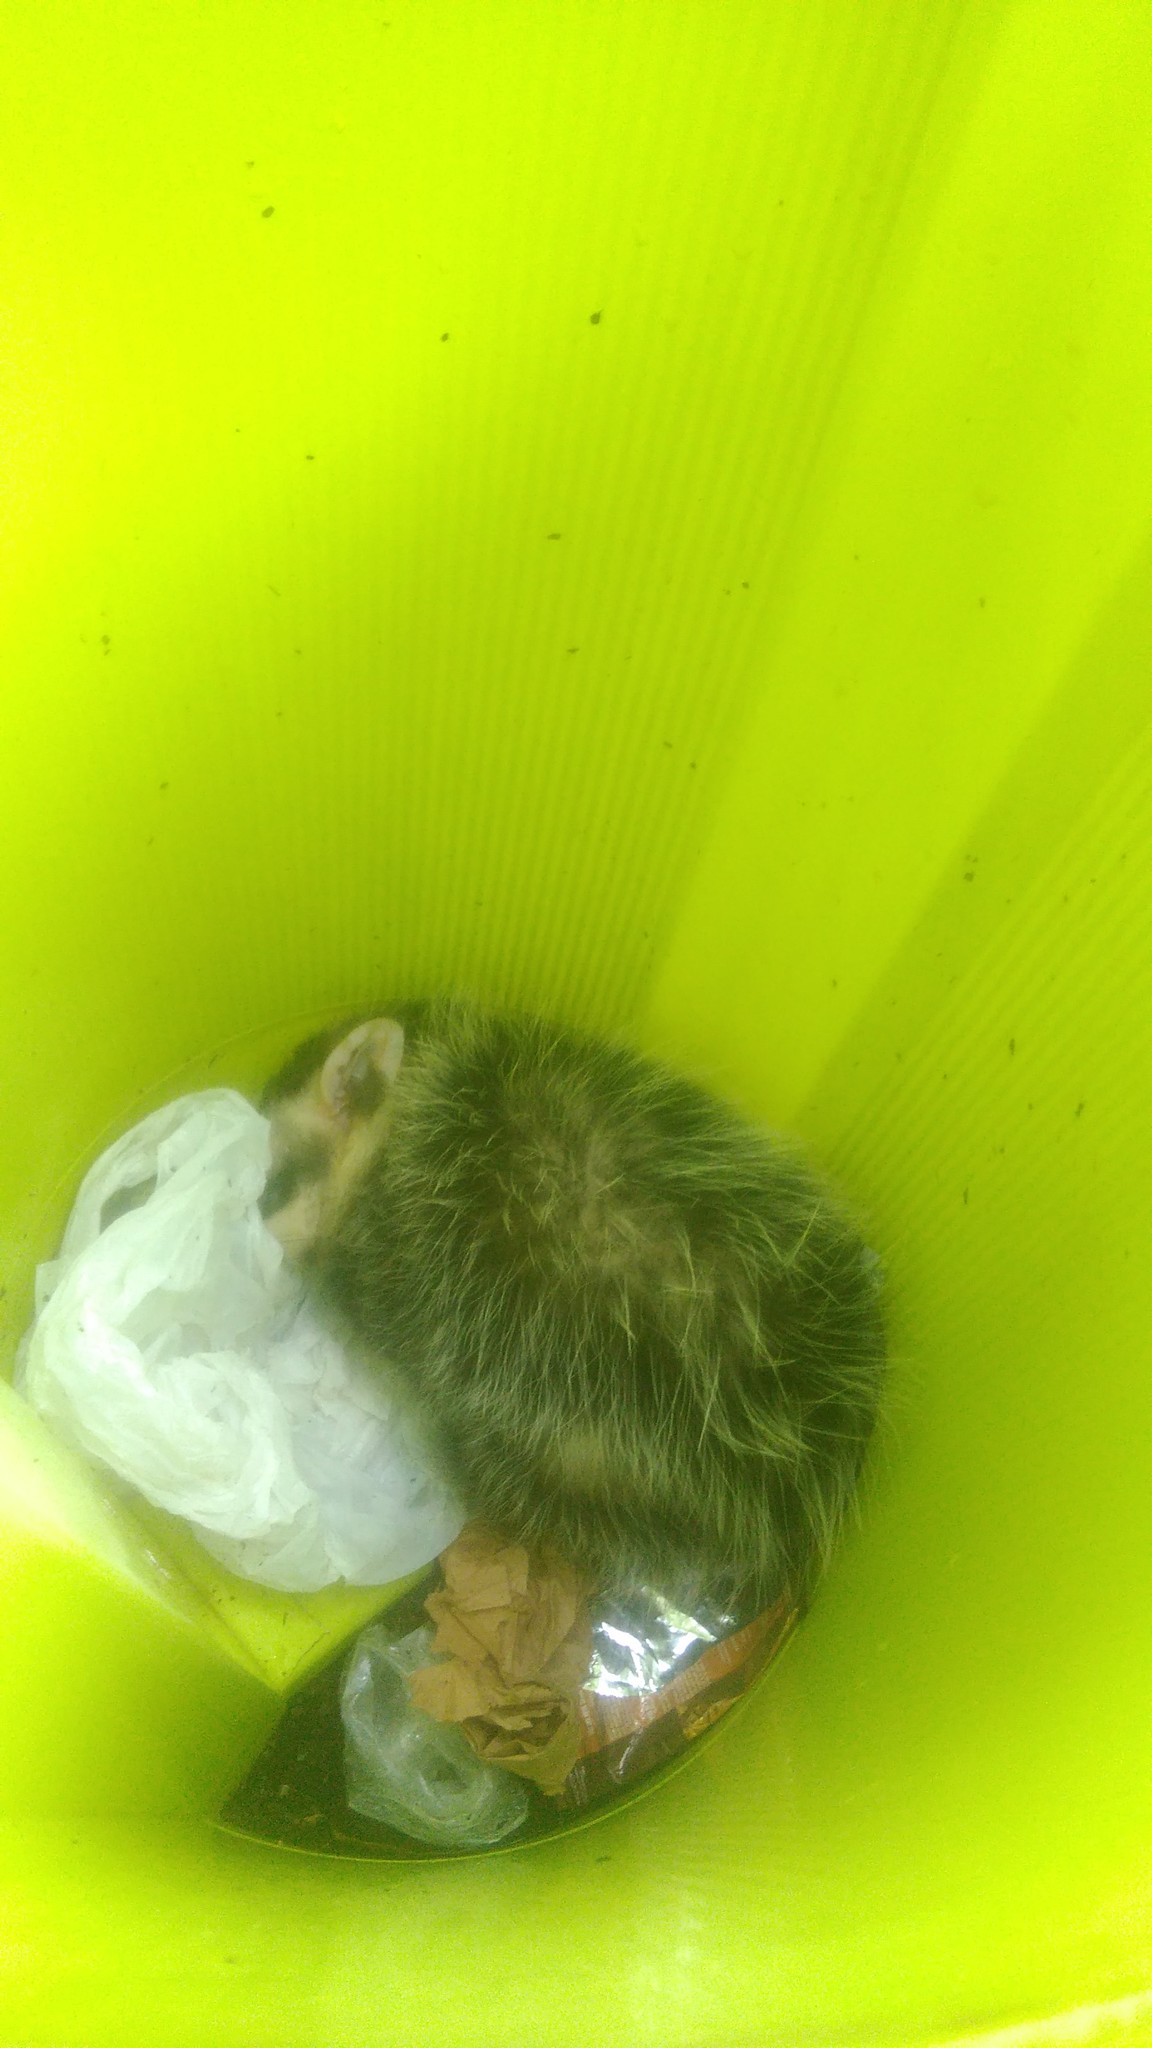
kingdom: Animalia
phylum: Chordata
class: Mammalia
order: Didelphimorphia
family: Didelphidae
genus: Didelphis
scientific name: Didelphis albiventris
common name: White-eared opossum
